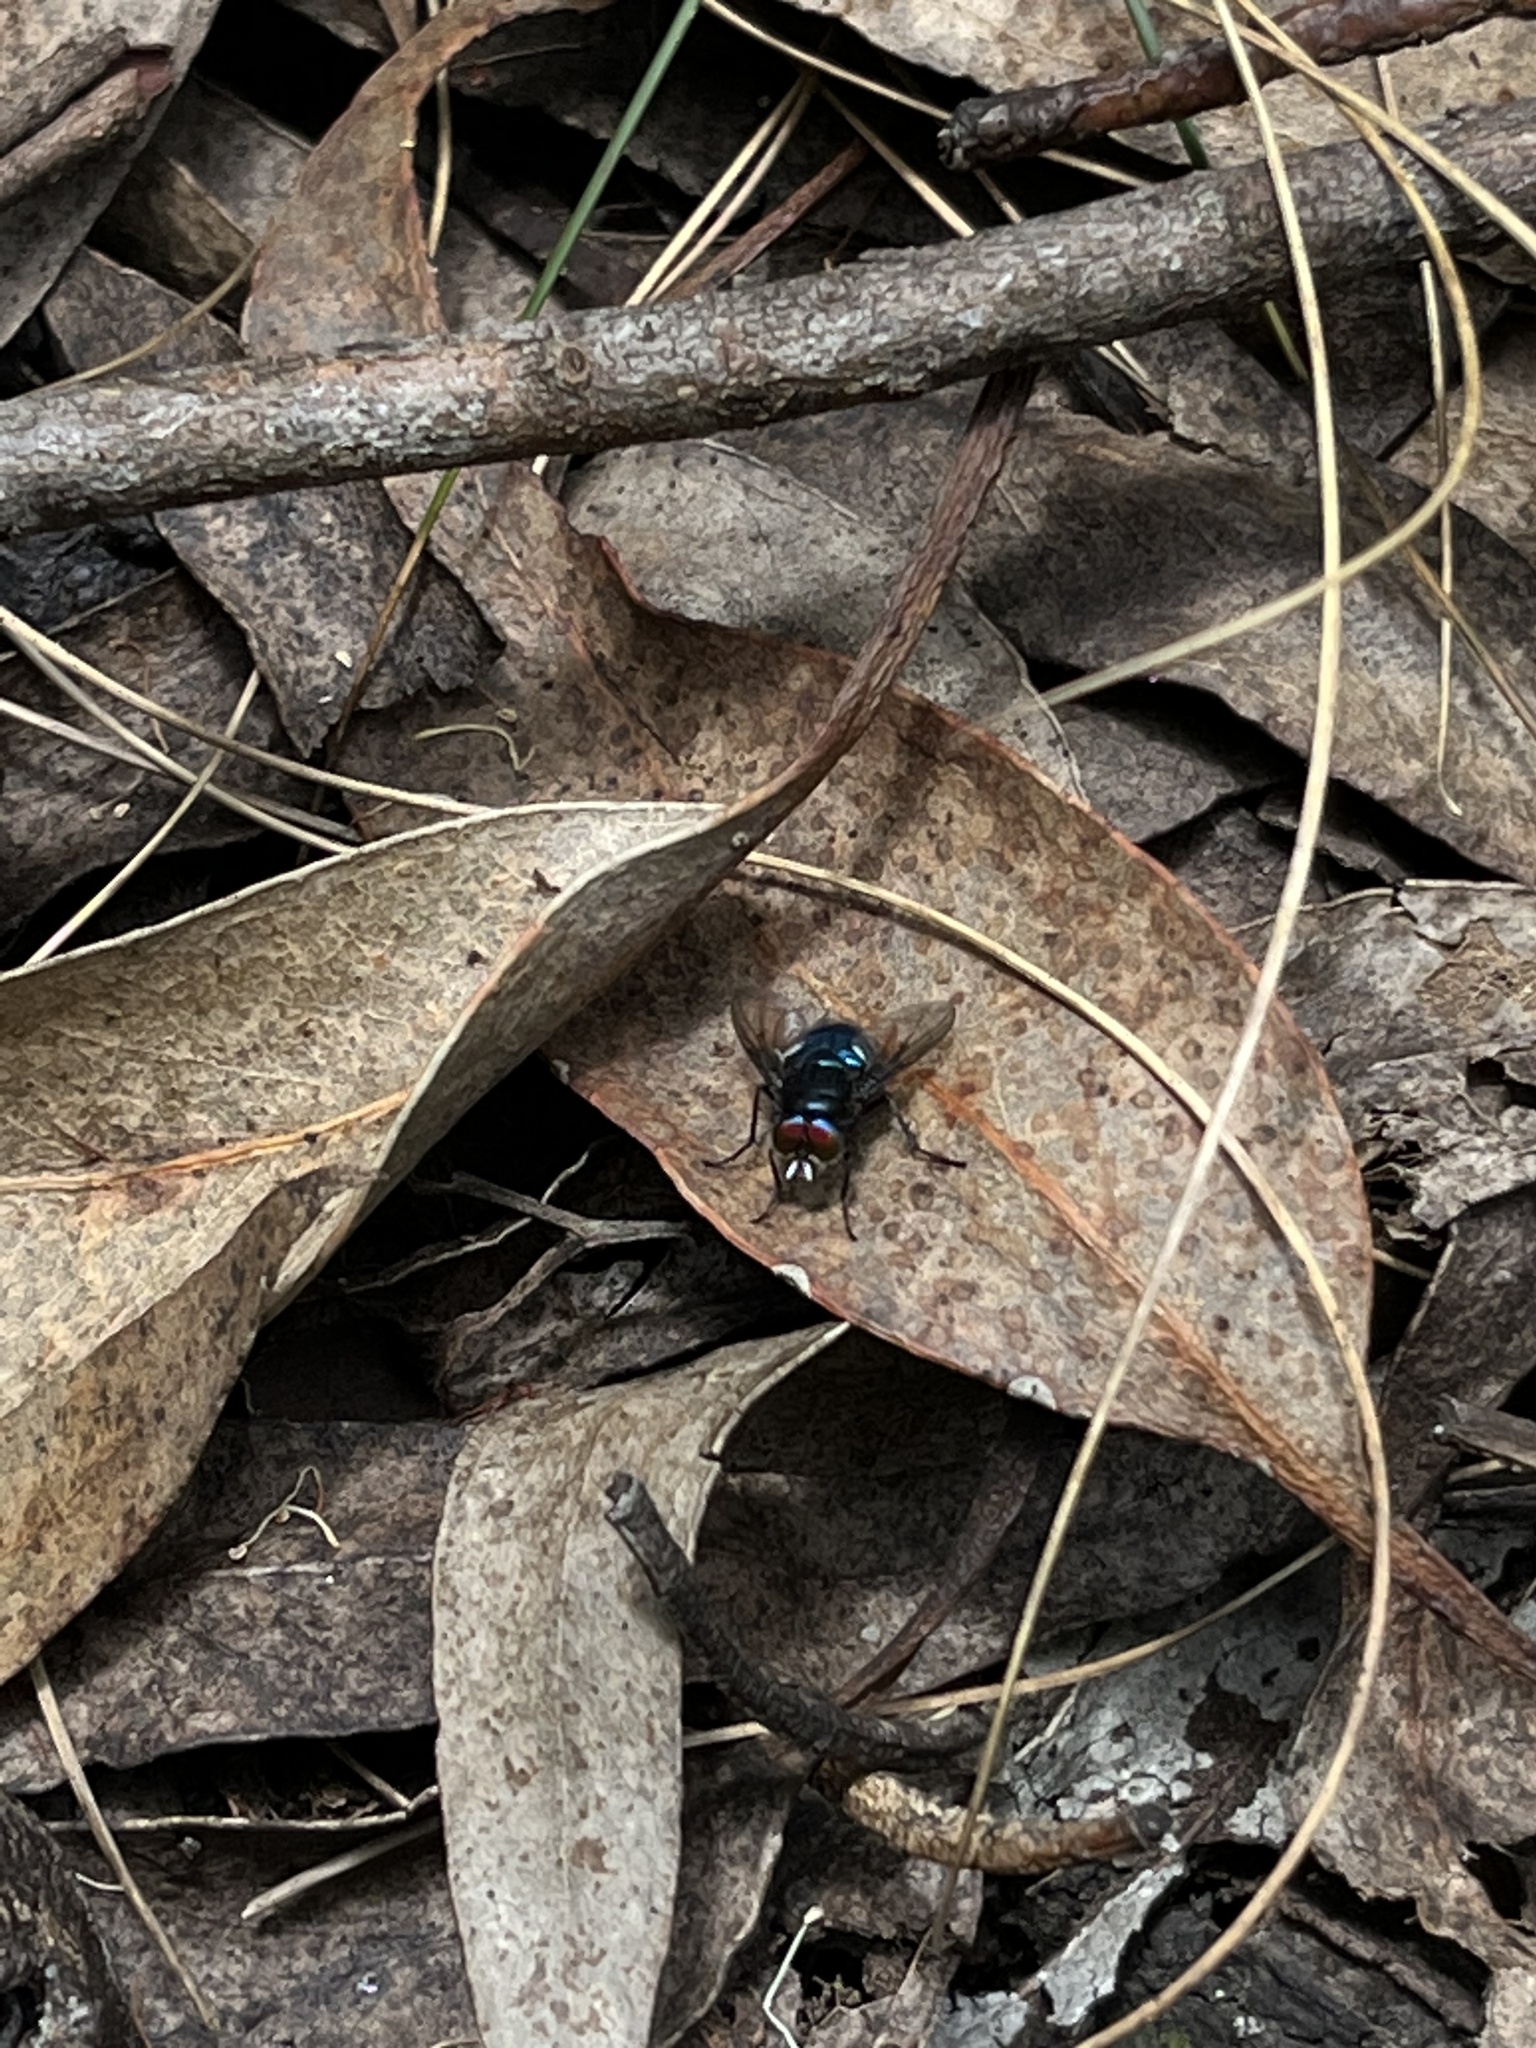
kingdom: Animalia
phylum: Arthropoda
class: Insecta
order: Diptera
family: Calliphoridae
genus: Sarconesia
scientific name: Sarconesia roraima
